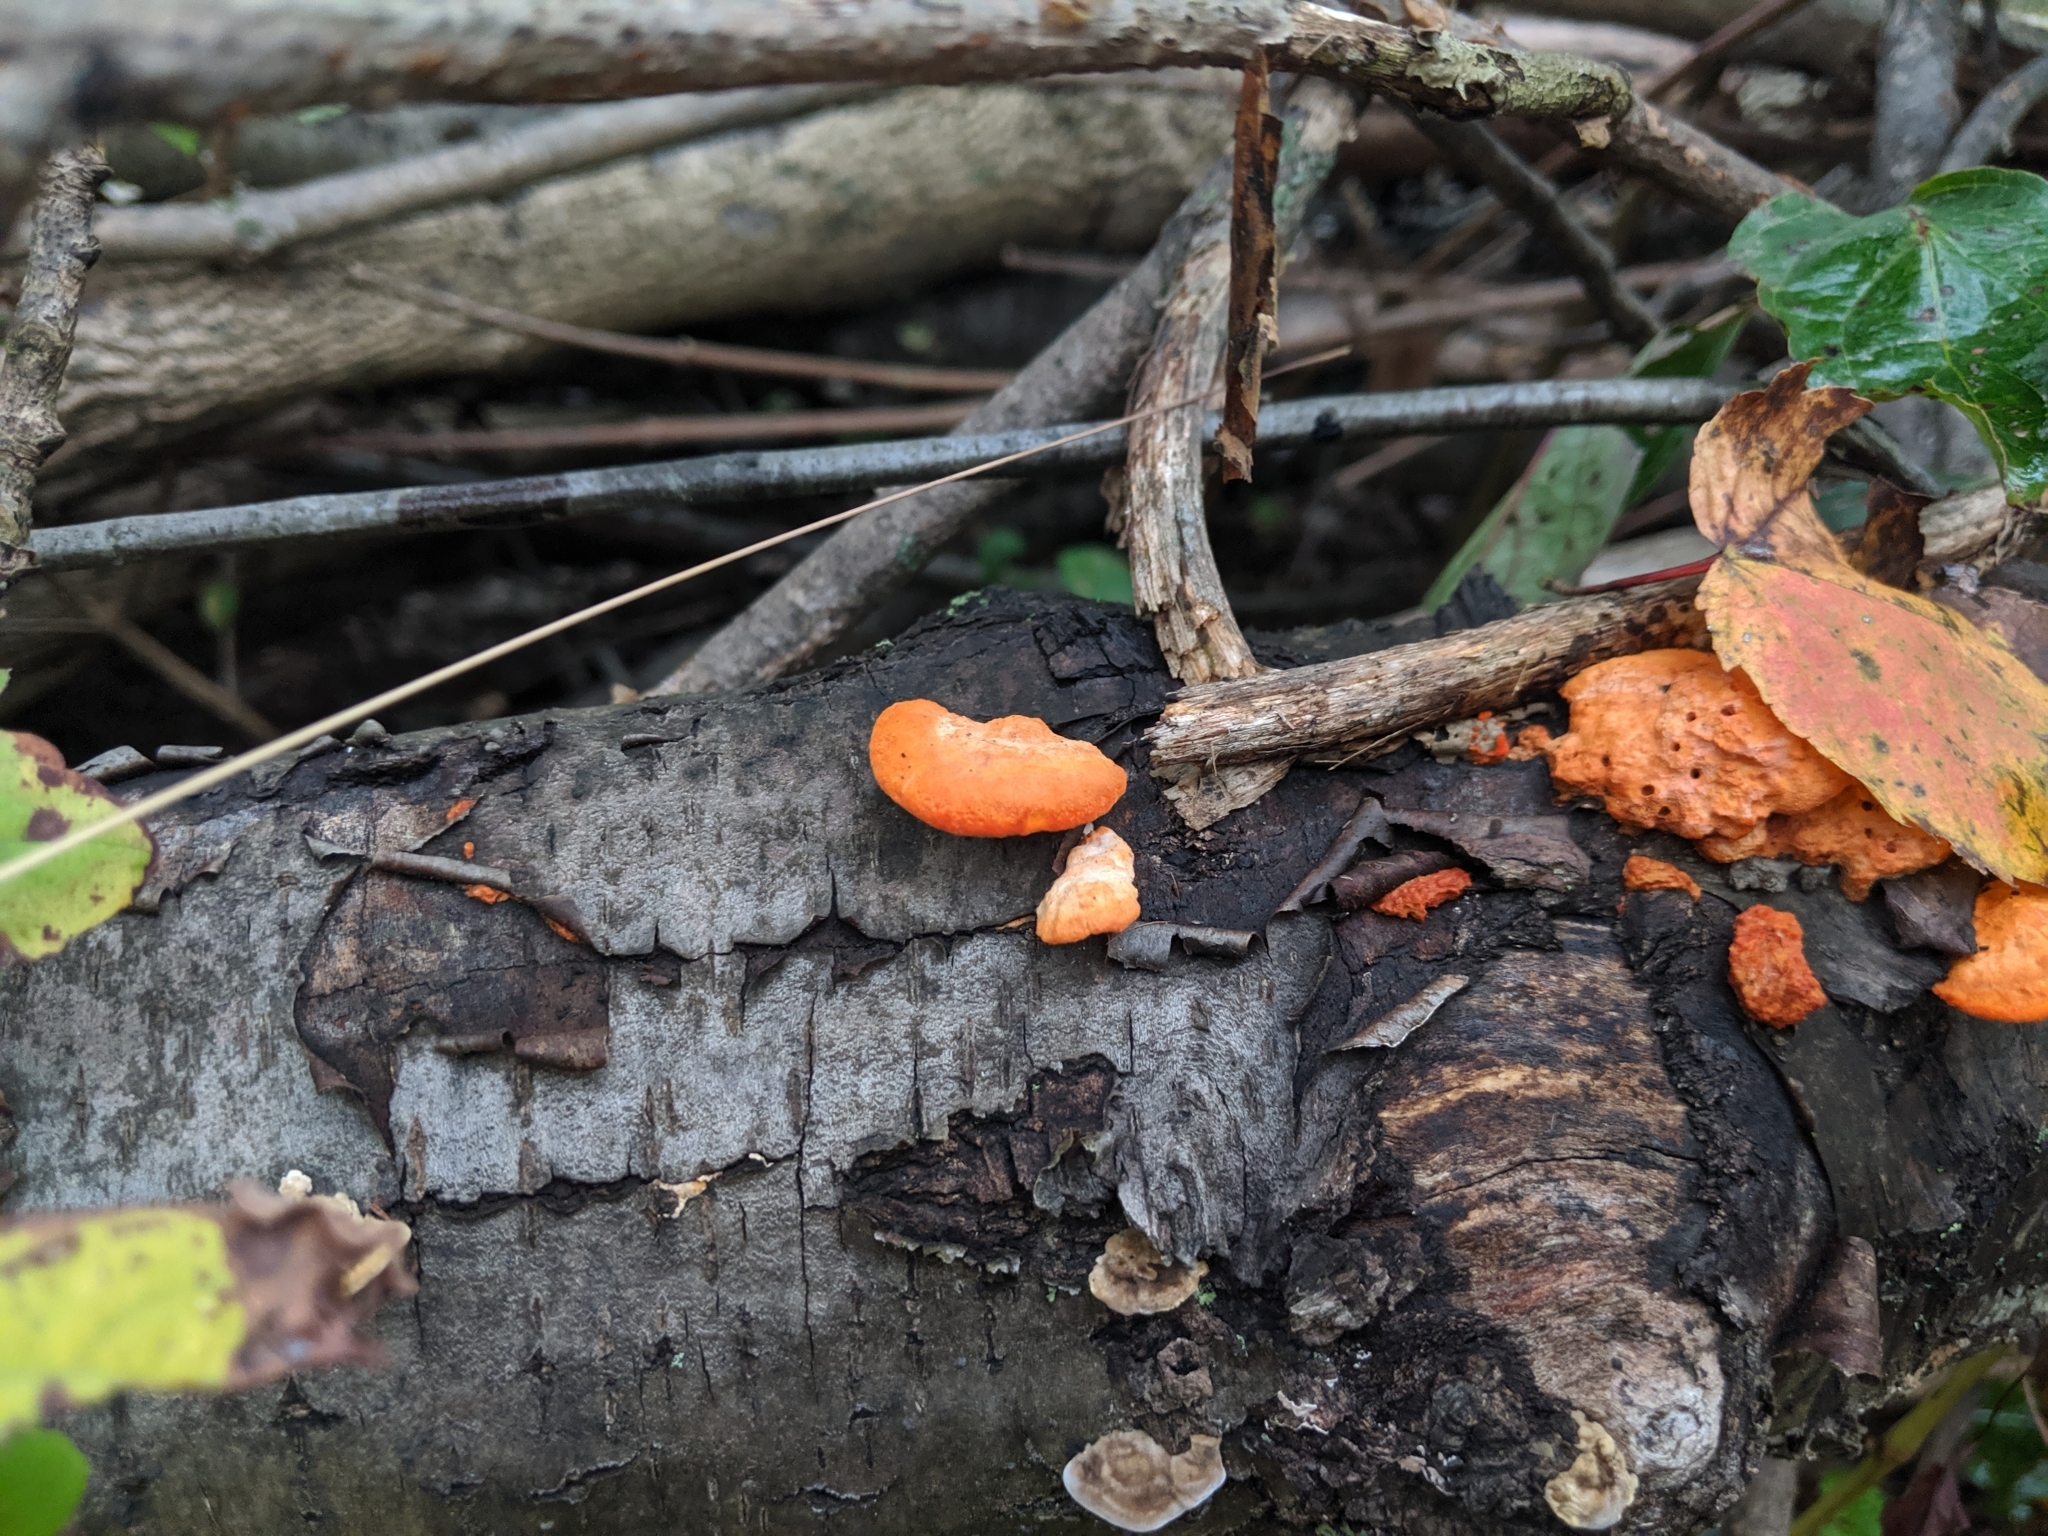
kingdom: Fungi
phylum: Basidiomycota
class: Agaricomycetes
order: Polyporales
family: Polyporaceae
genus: Trametes
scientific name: Trametes cinnabarina
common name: Northern cinnabar polypore
